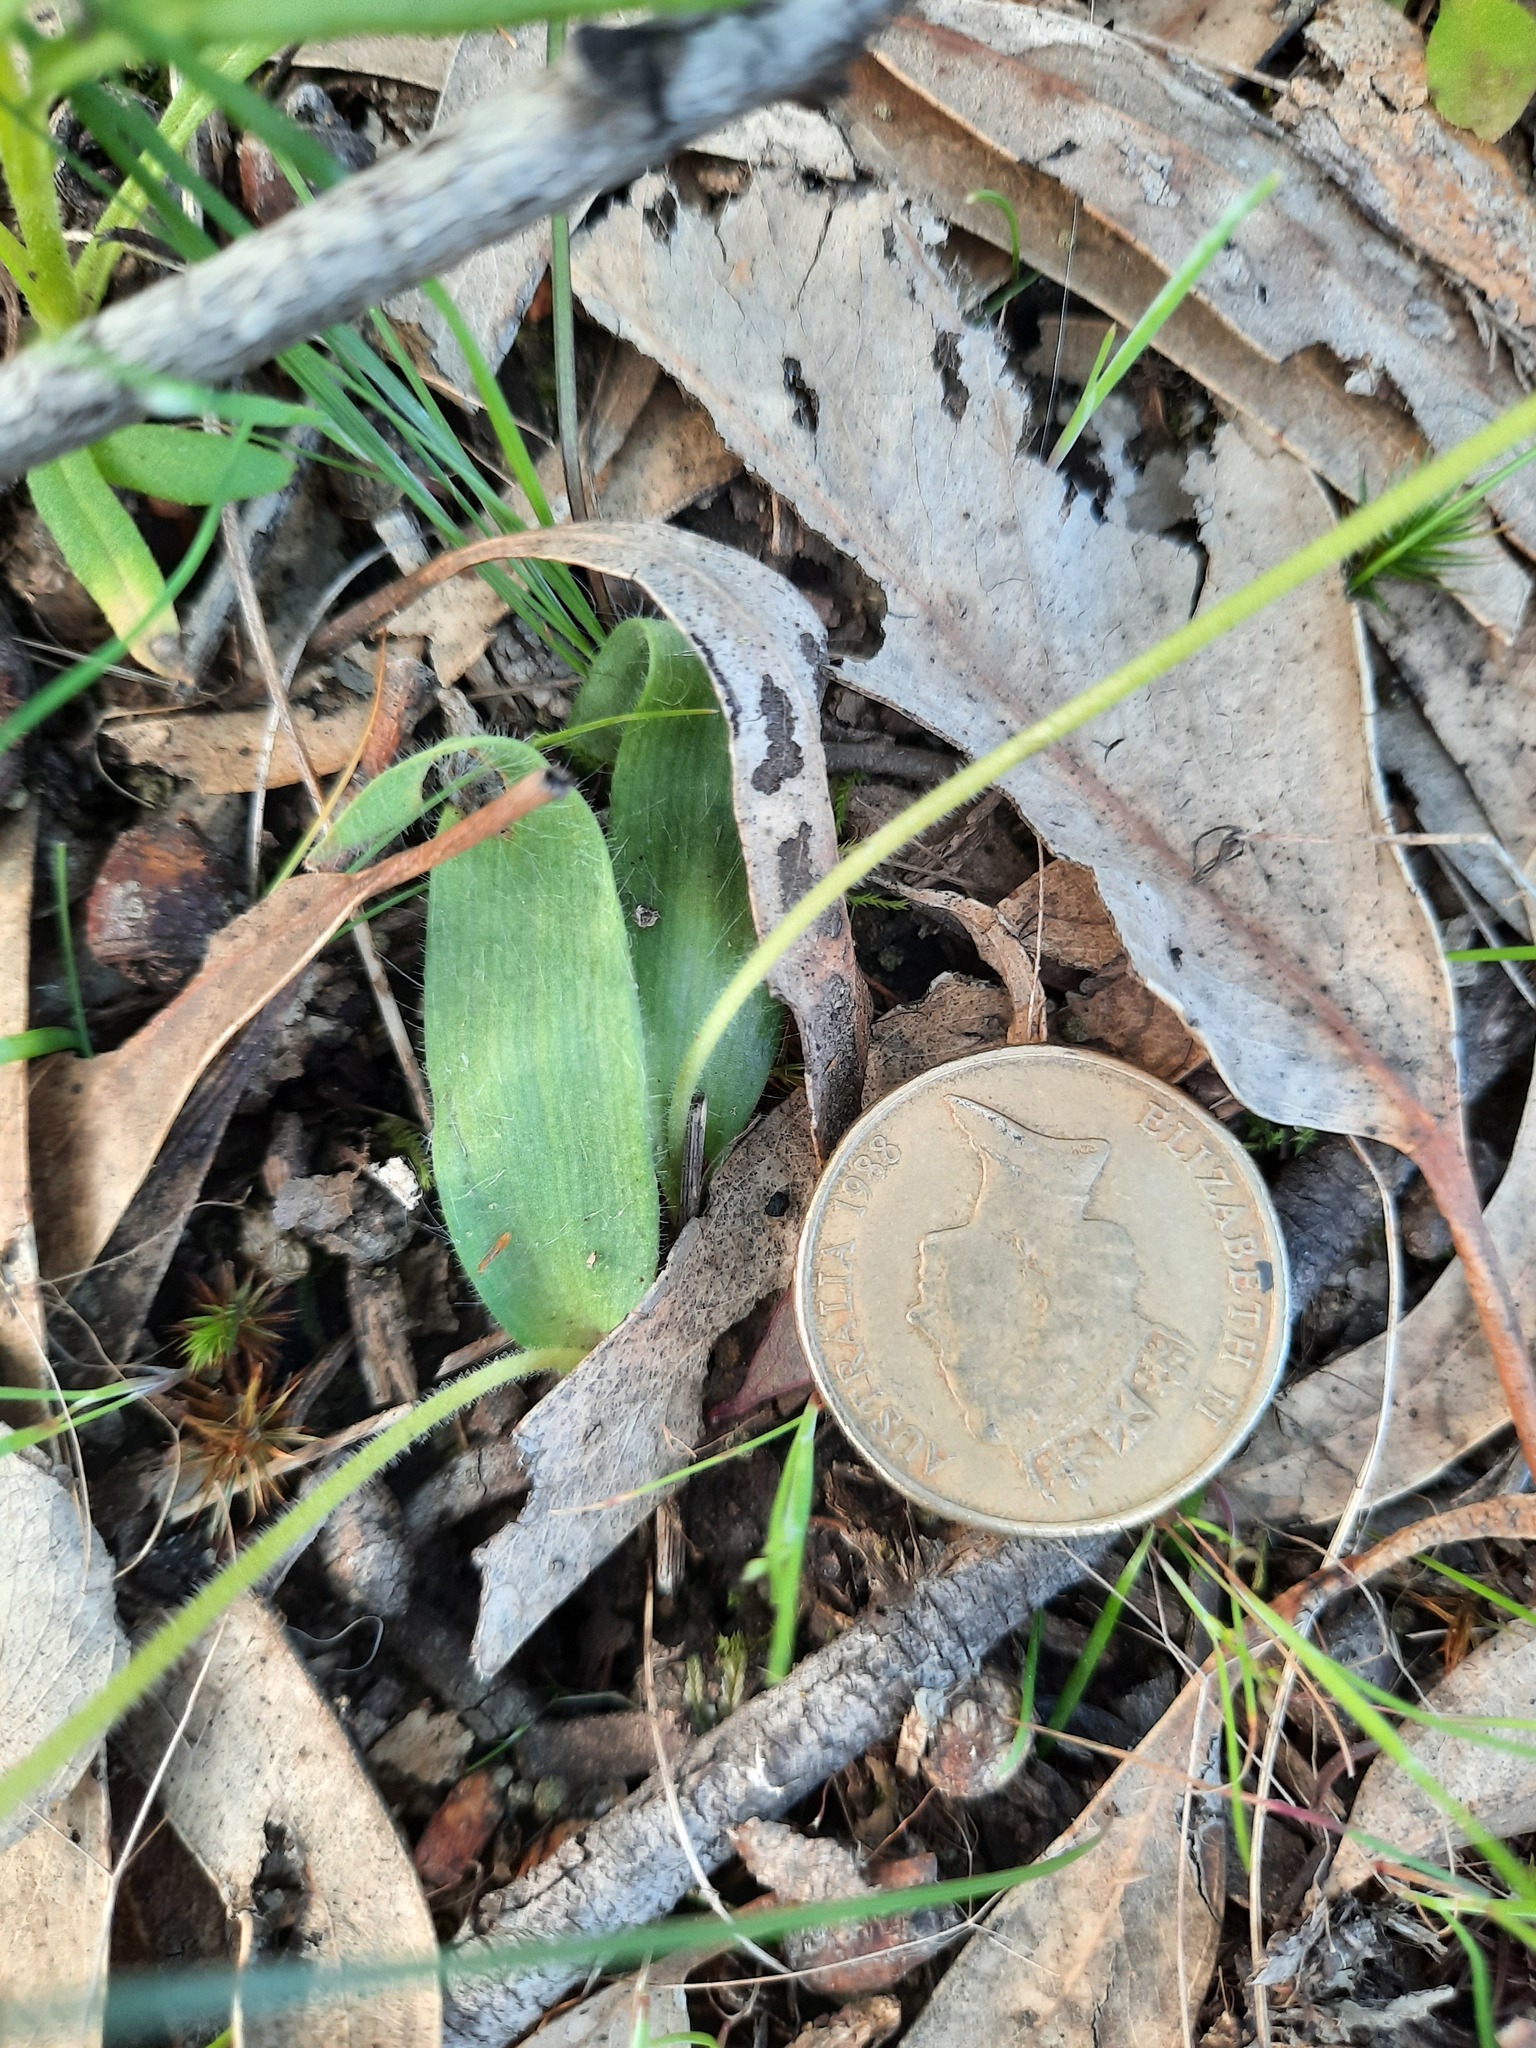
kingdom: Plantae
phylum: Tracheophyta
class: Liliopsida
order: Asparagales
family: Orchidaceae
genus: Caladenia
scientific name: Caladenia major
